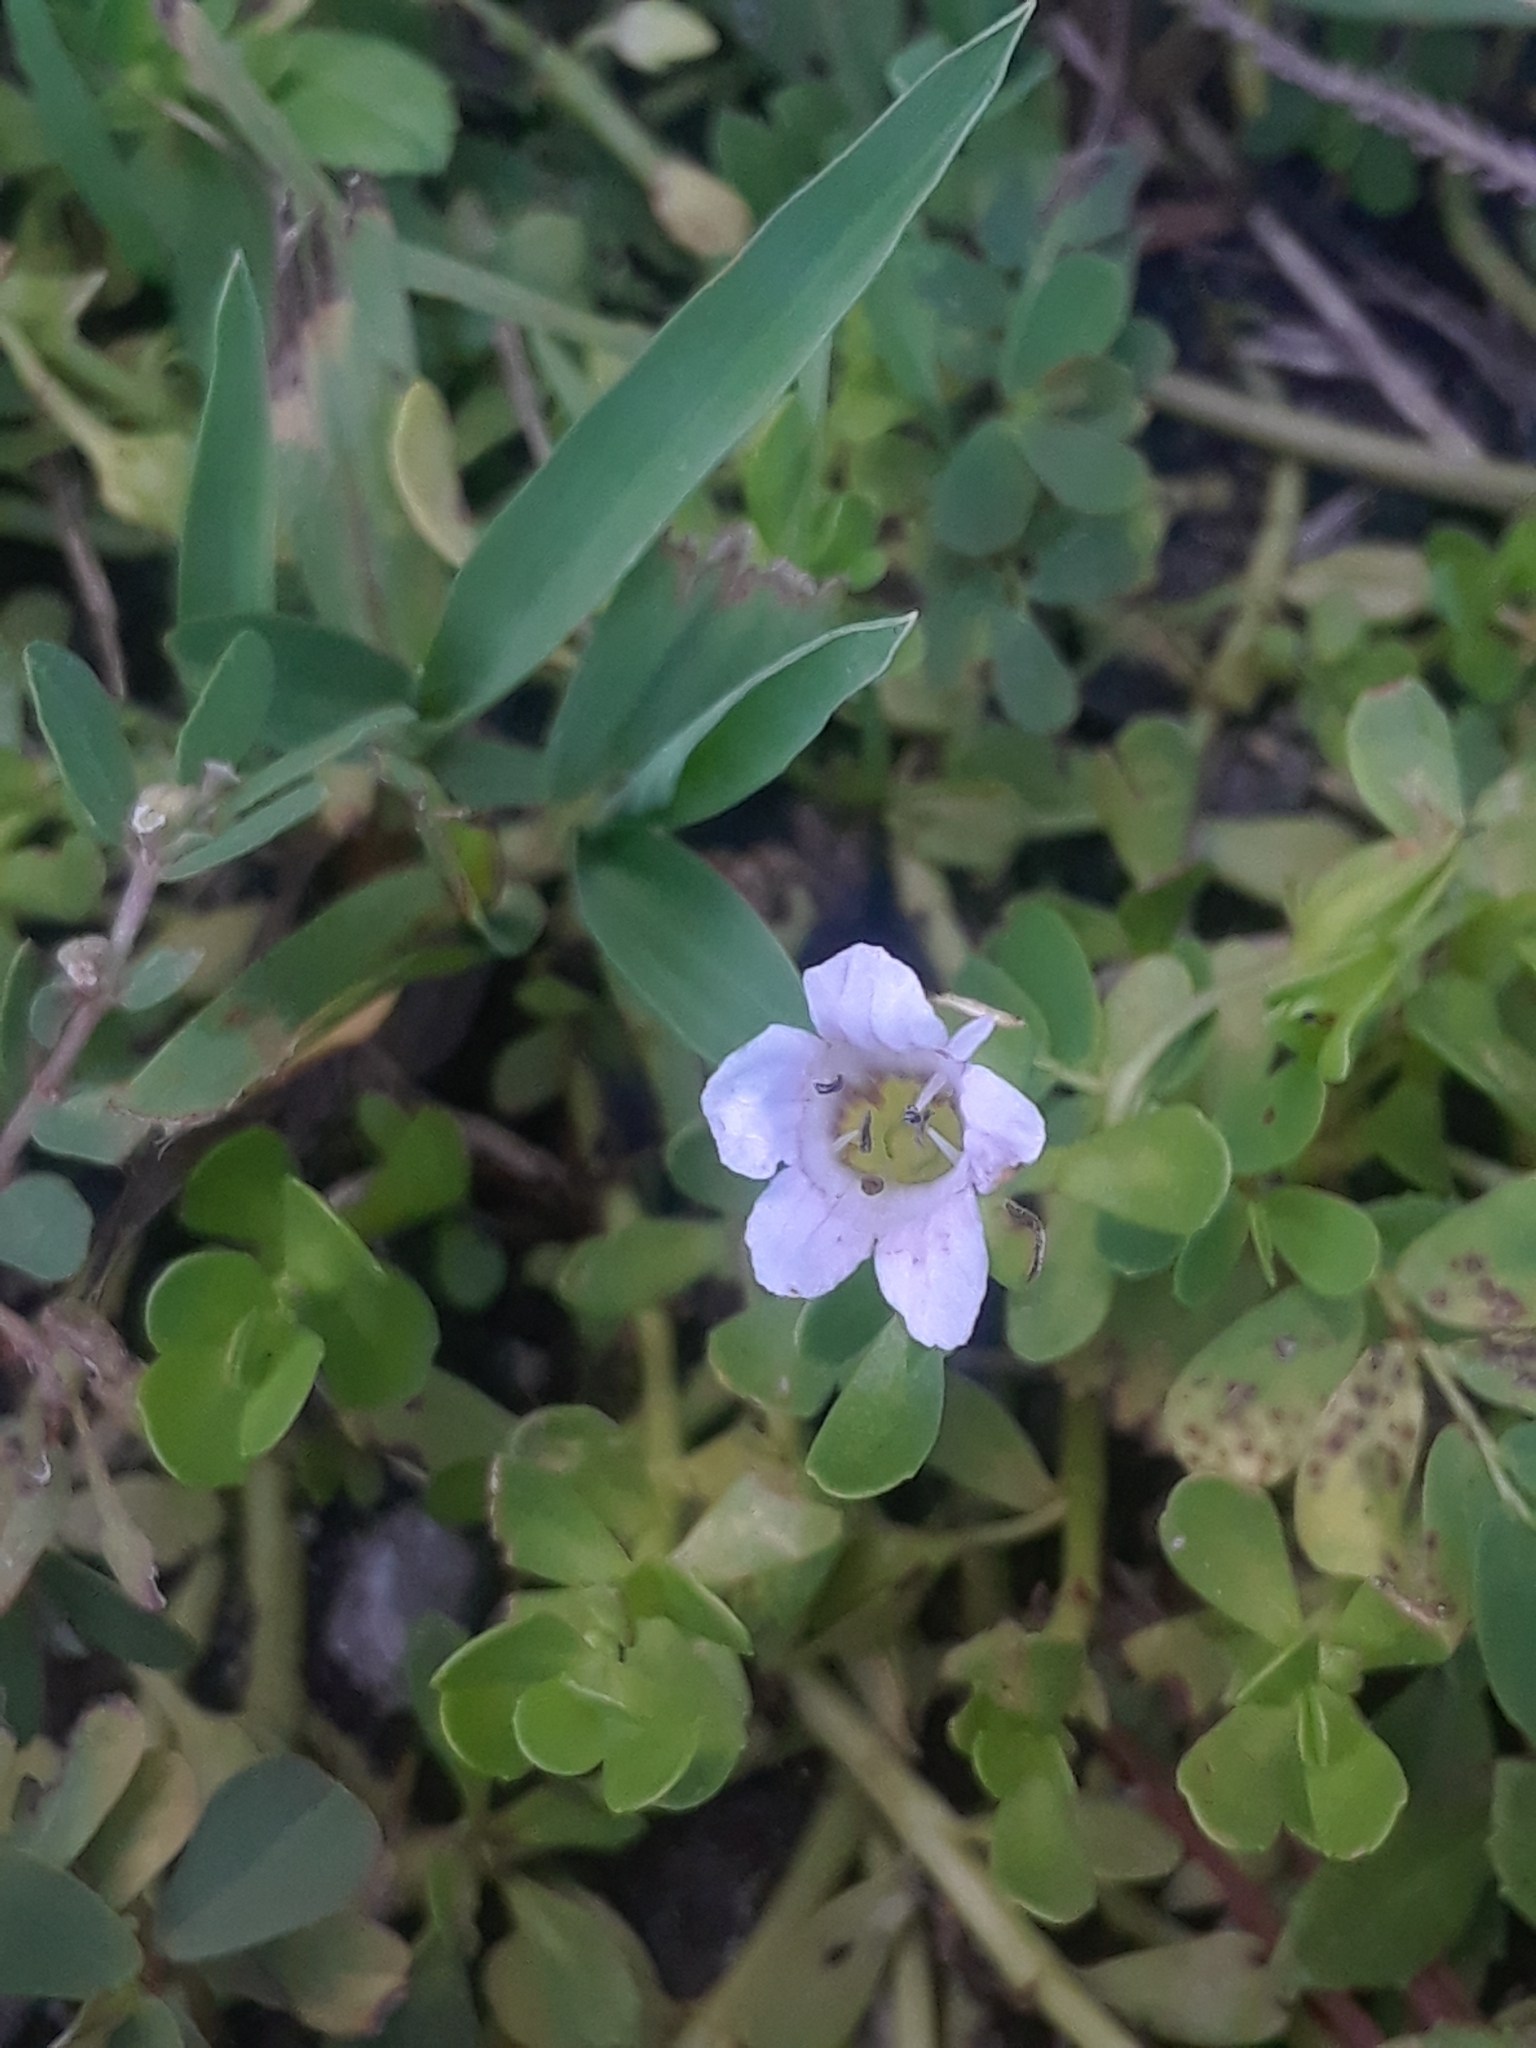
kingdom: Plantae
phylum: Tracheophyta
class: Magnoliopsida
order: Lamiales
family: Plantaginaceae
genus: Bacopa
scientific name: Bacopa monnieri
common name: Indian-pennywort
